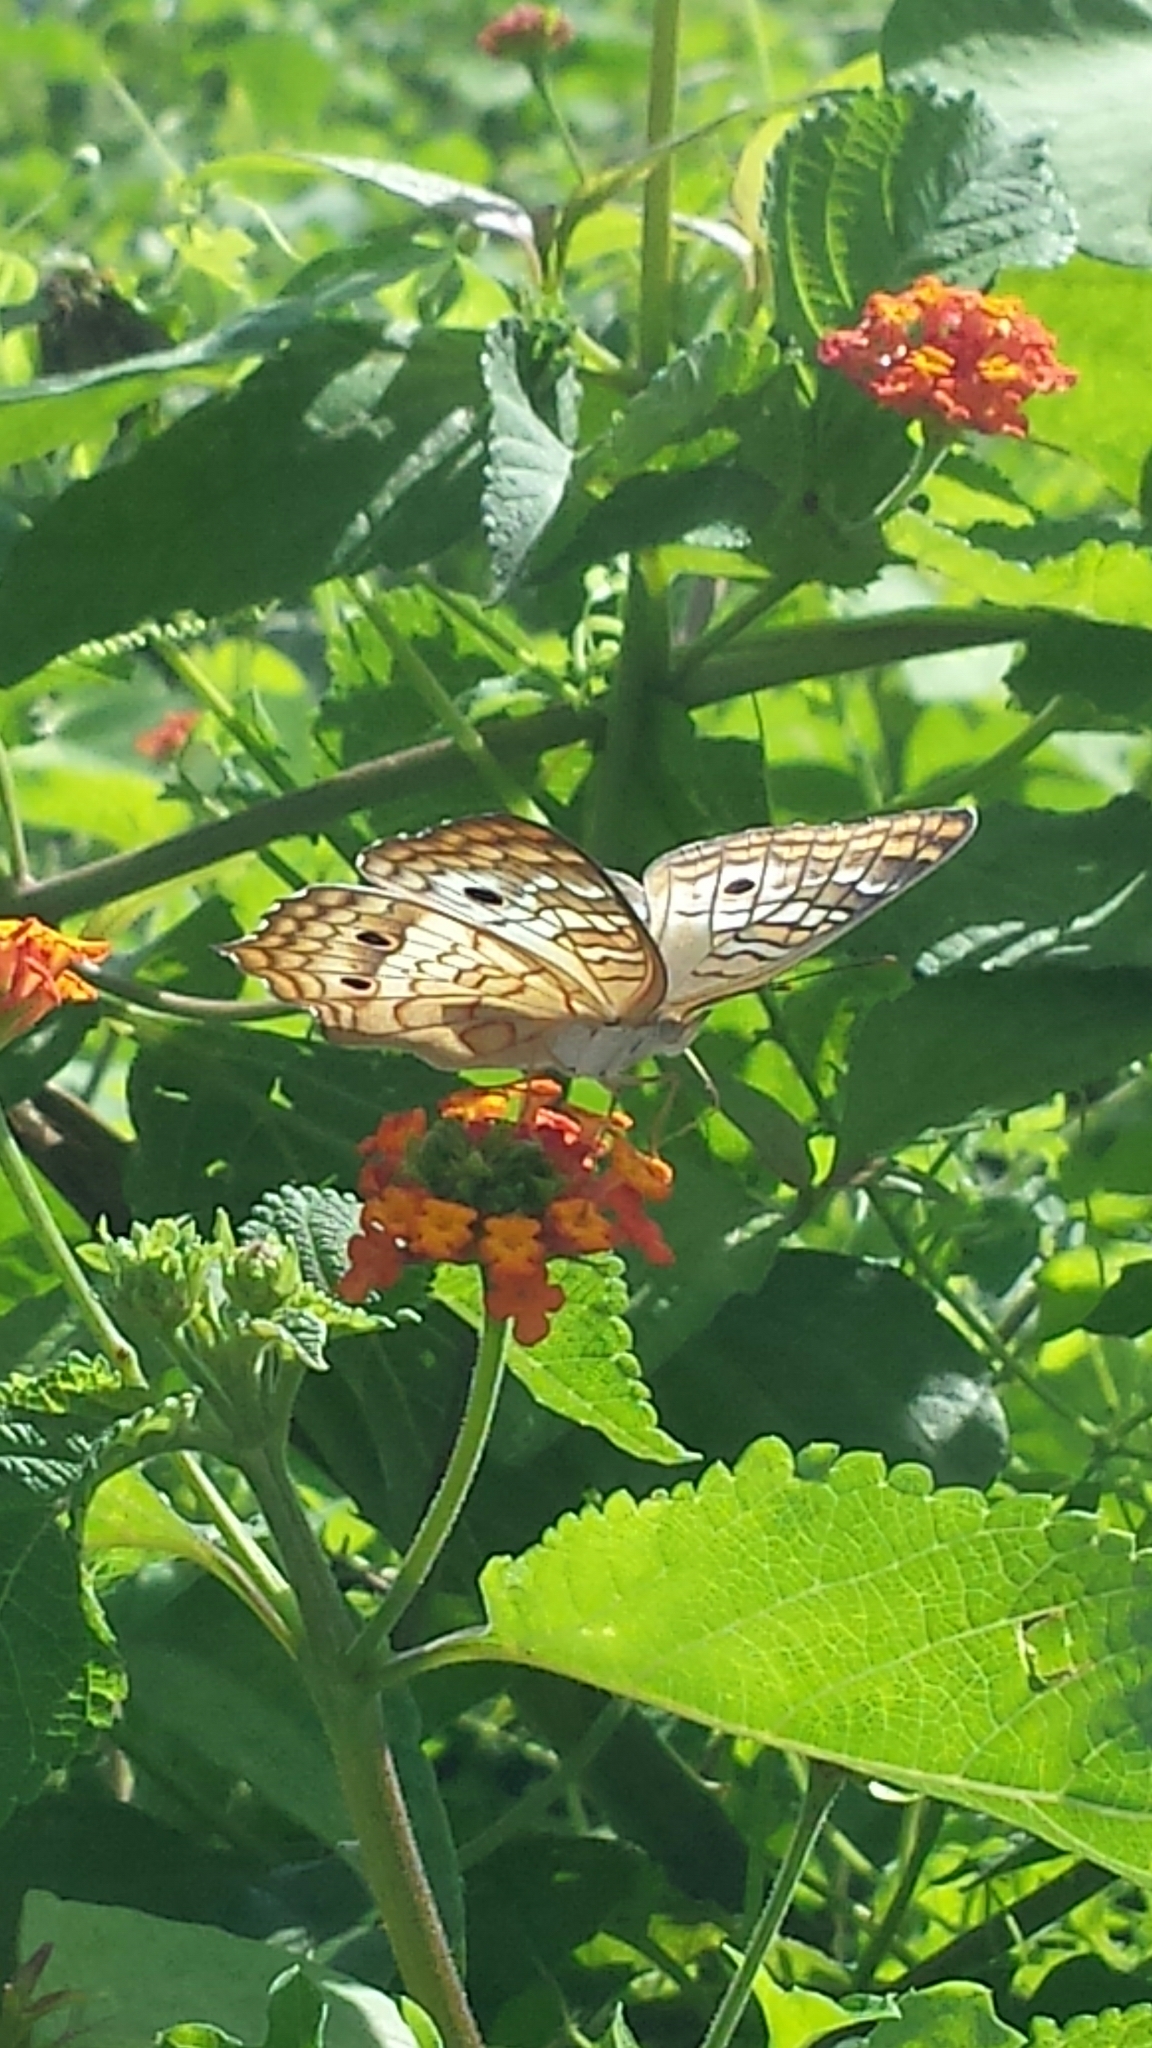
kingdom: Animalia
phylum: Arthropoda
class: Insecta
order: Lepidoptera
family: Nymphalidae
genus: Anartia
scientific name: Anartia jatrophae
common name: White peacock
